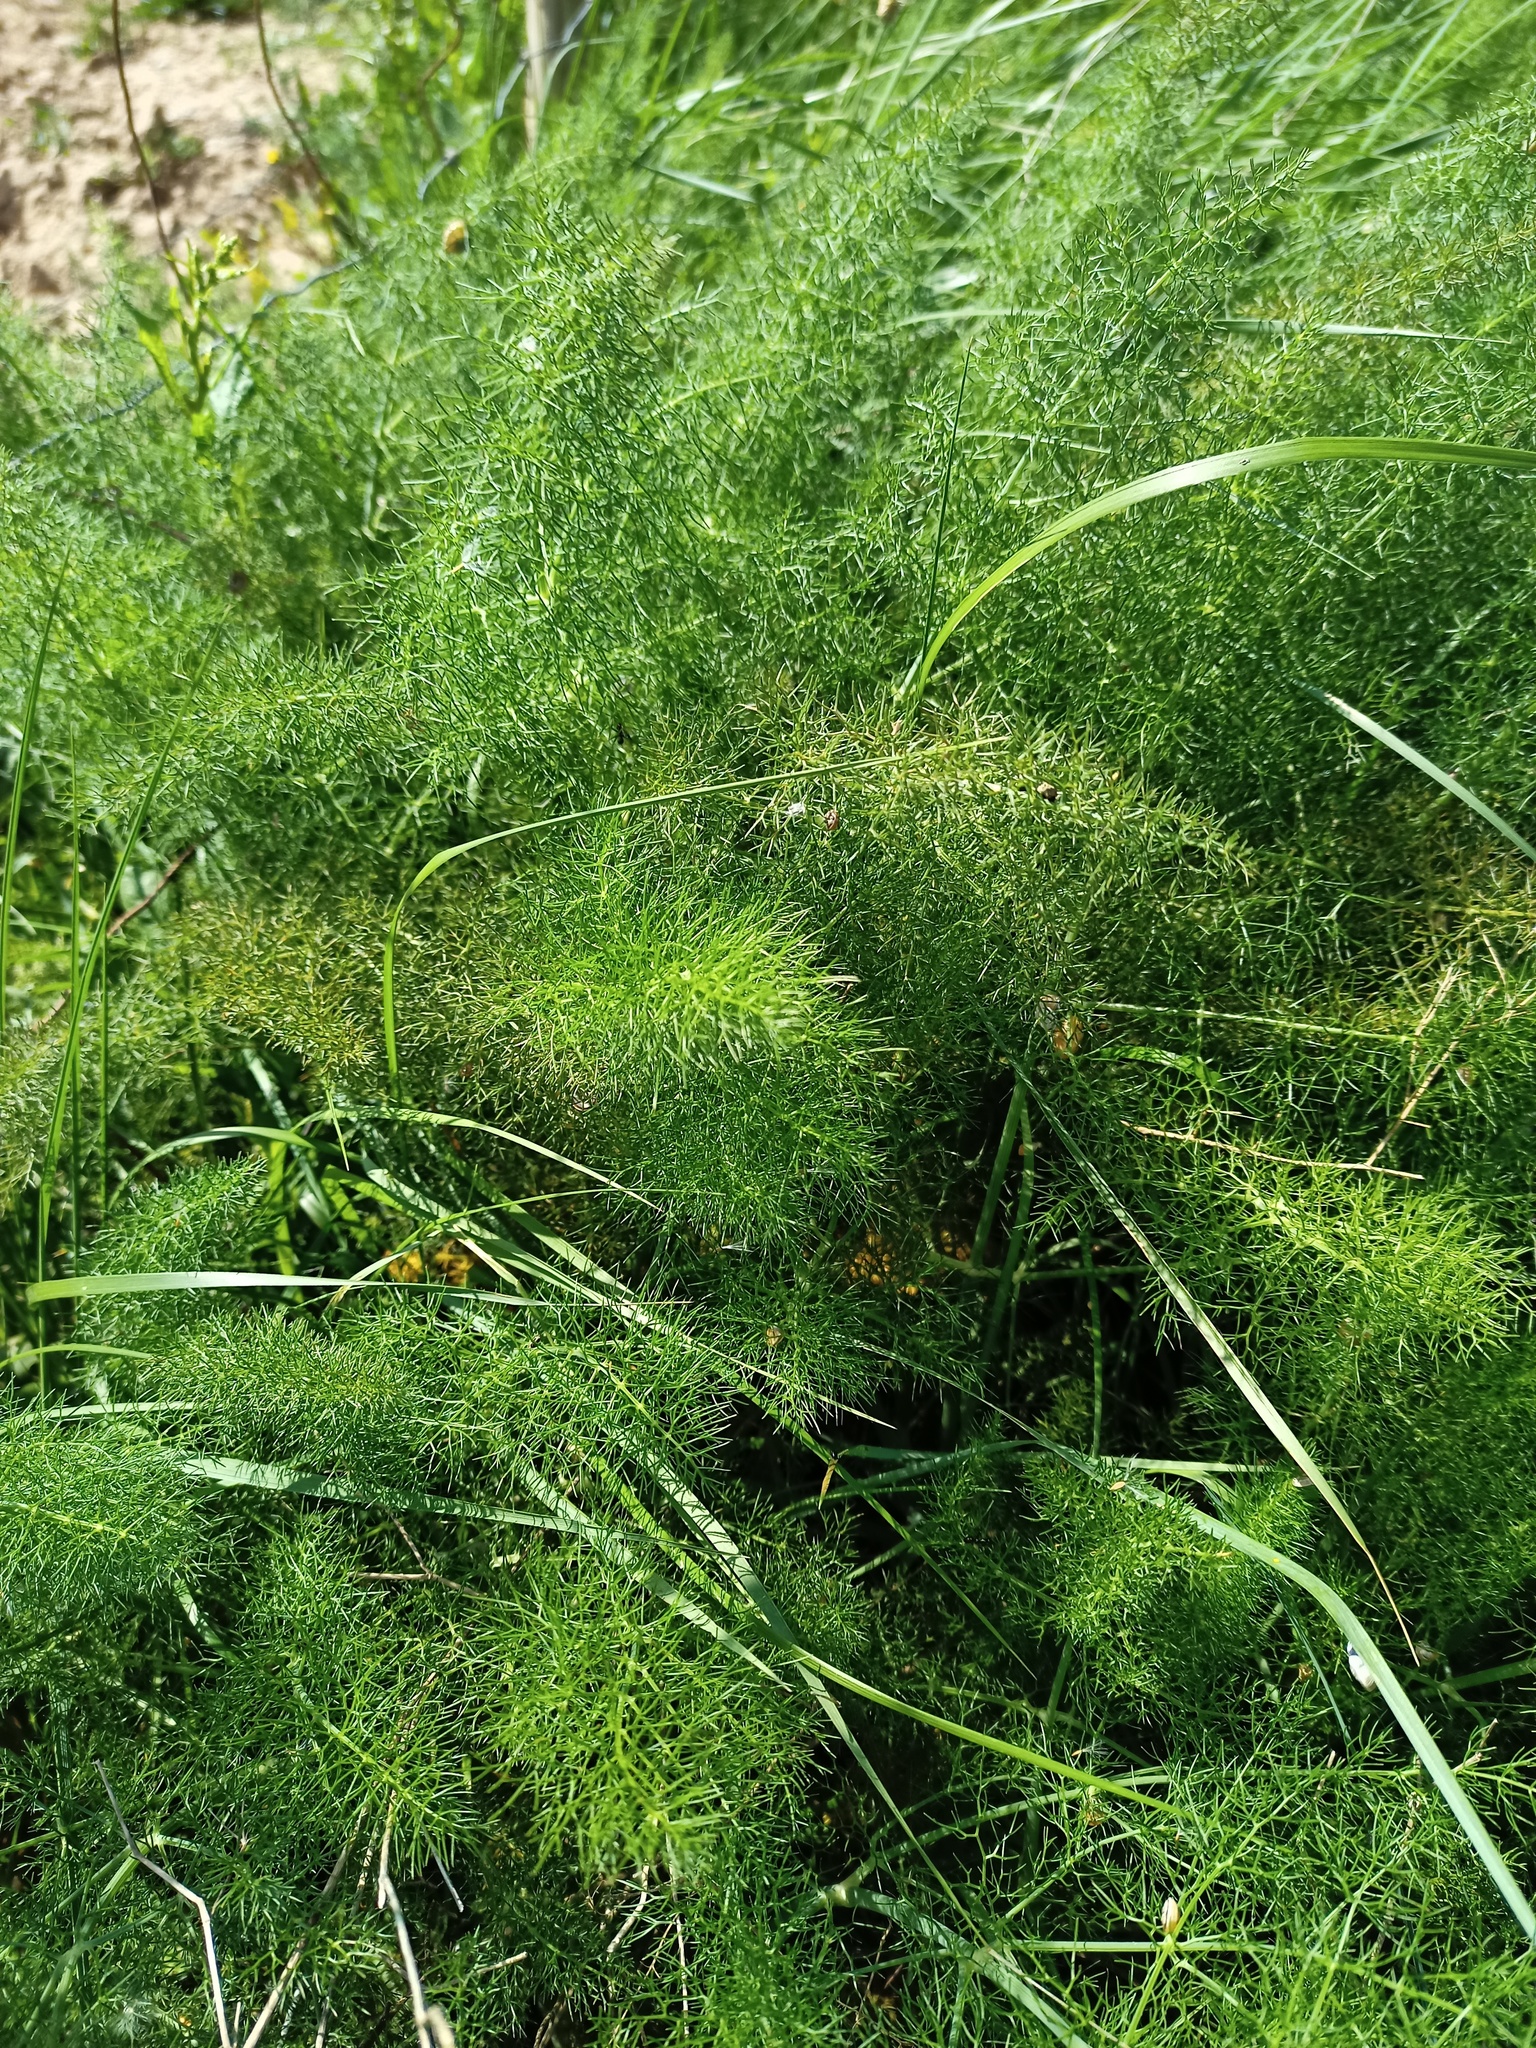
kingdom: Plantae
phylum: Tracheophyta
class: Magnoliopsida
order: Apiales
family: Apiaceae
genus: Foeniculum
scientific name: Foeniculum vulgare
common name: Fennel
